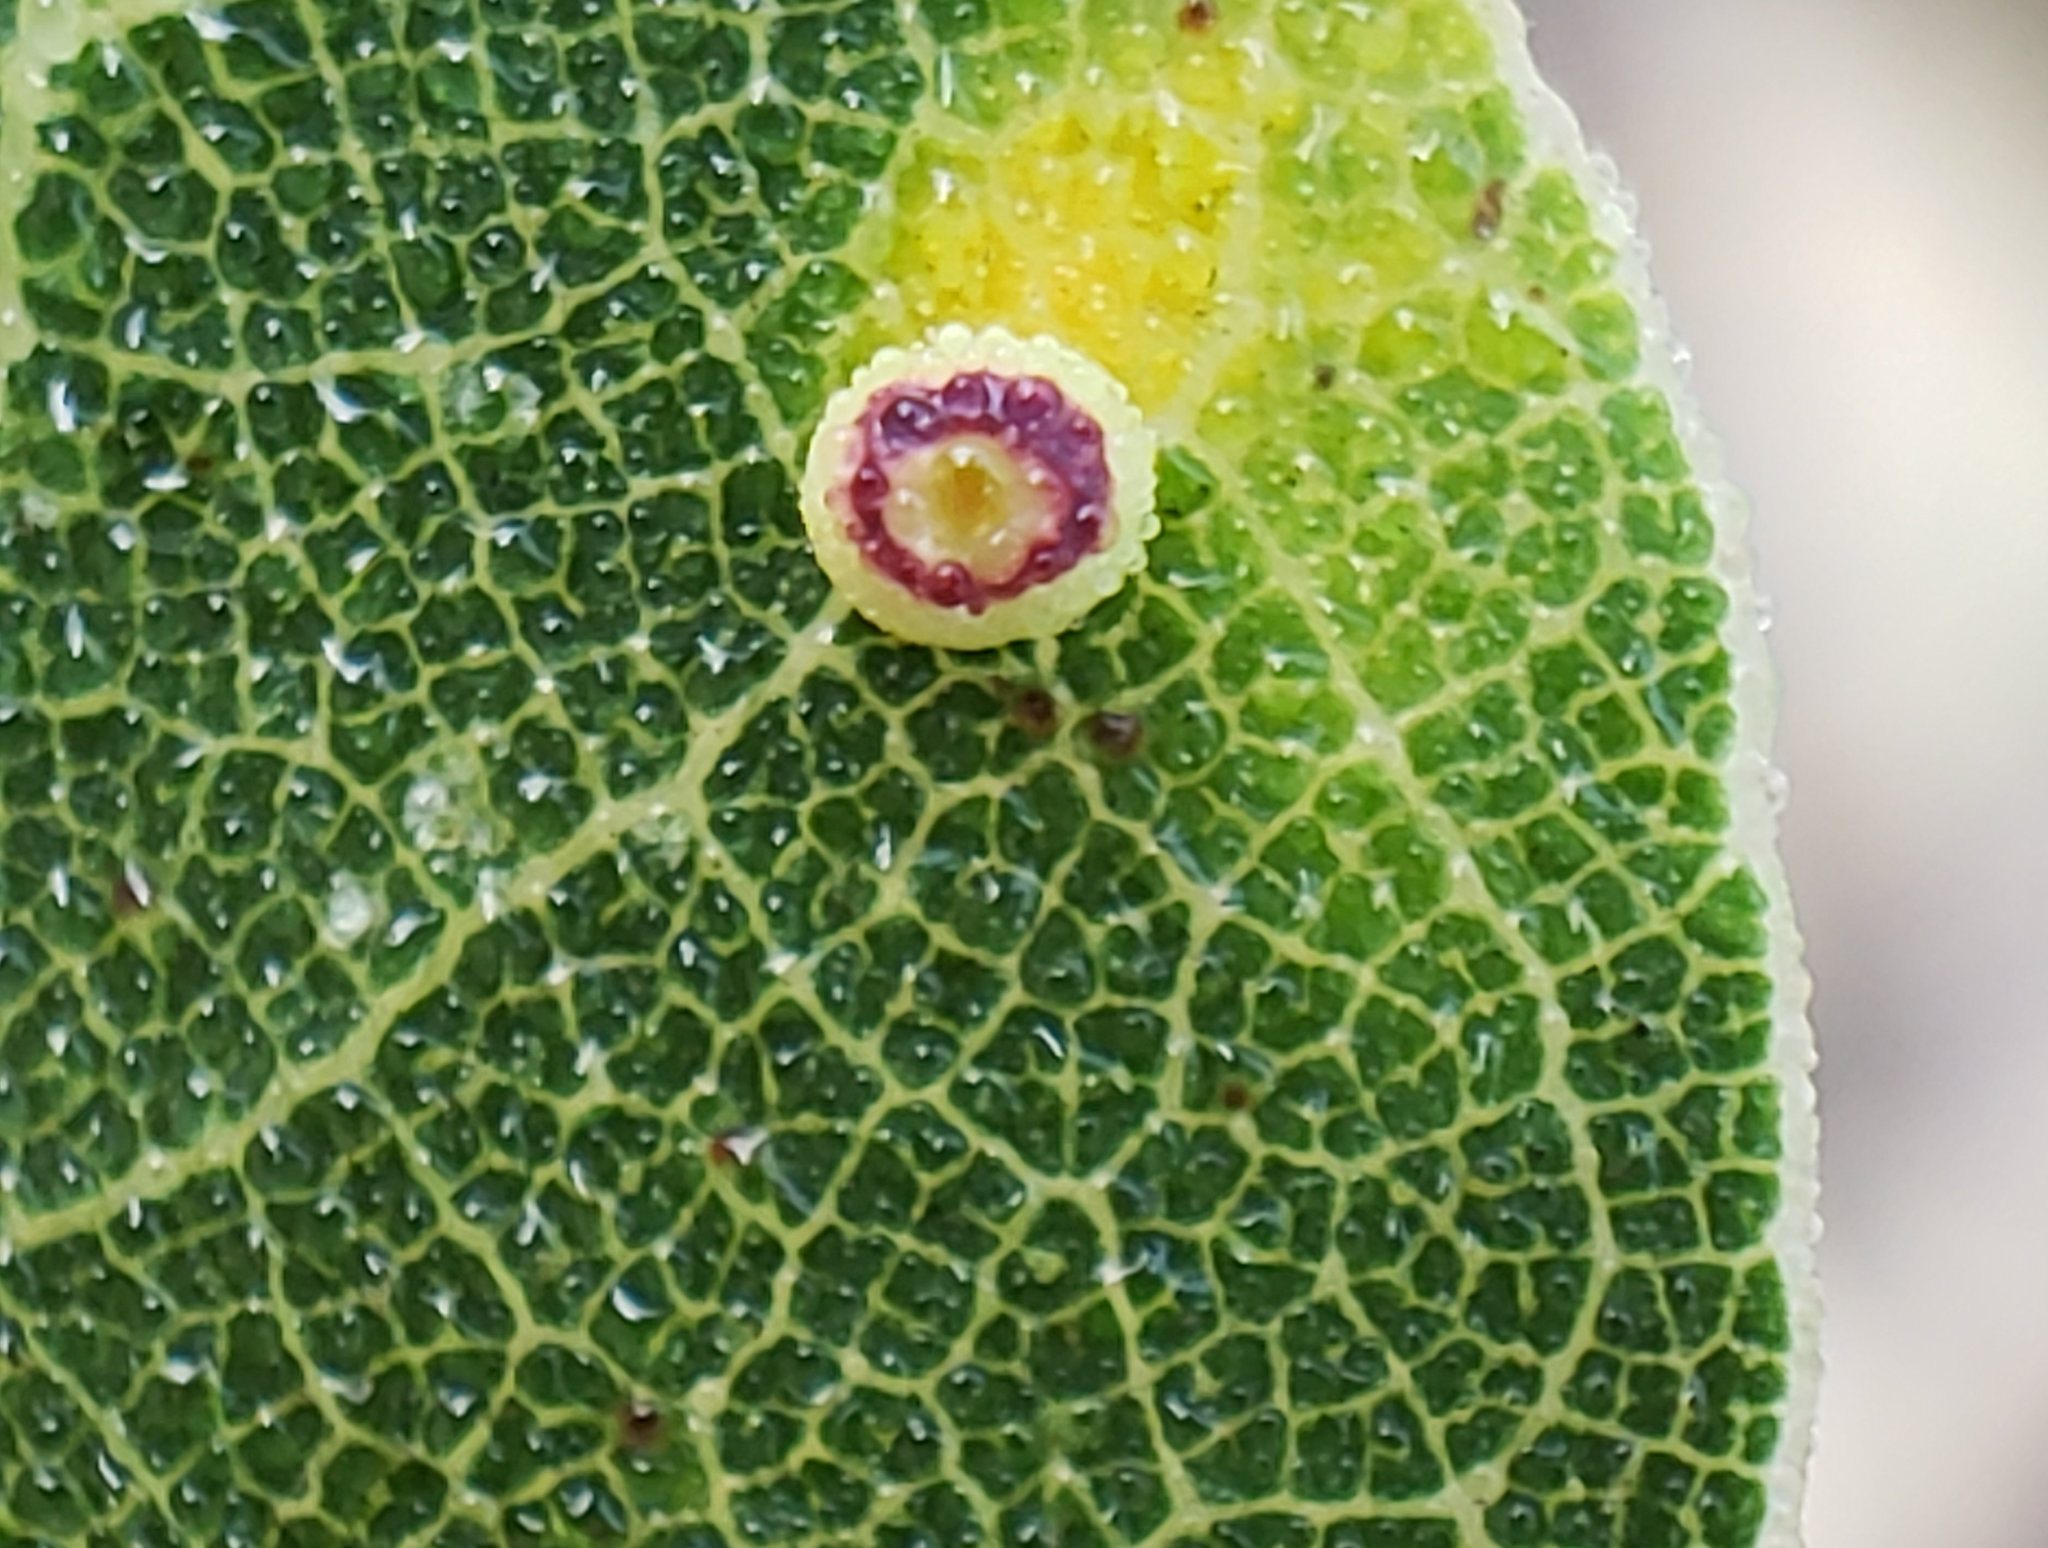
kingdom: Animalia
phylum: Arthropoda
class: Insecta
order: Hymenoptera
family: Cynipidae
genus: Dryocosmus
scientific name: Dryocosmus
